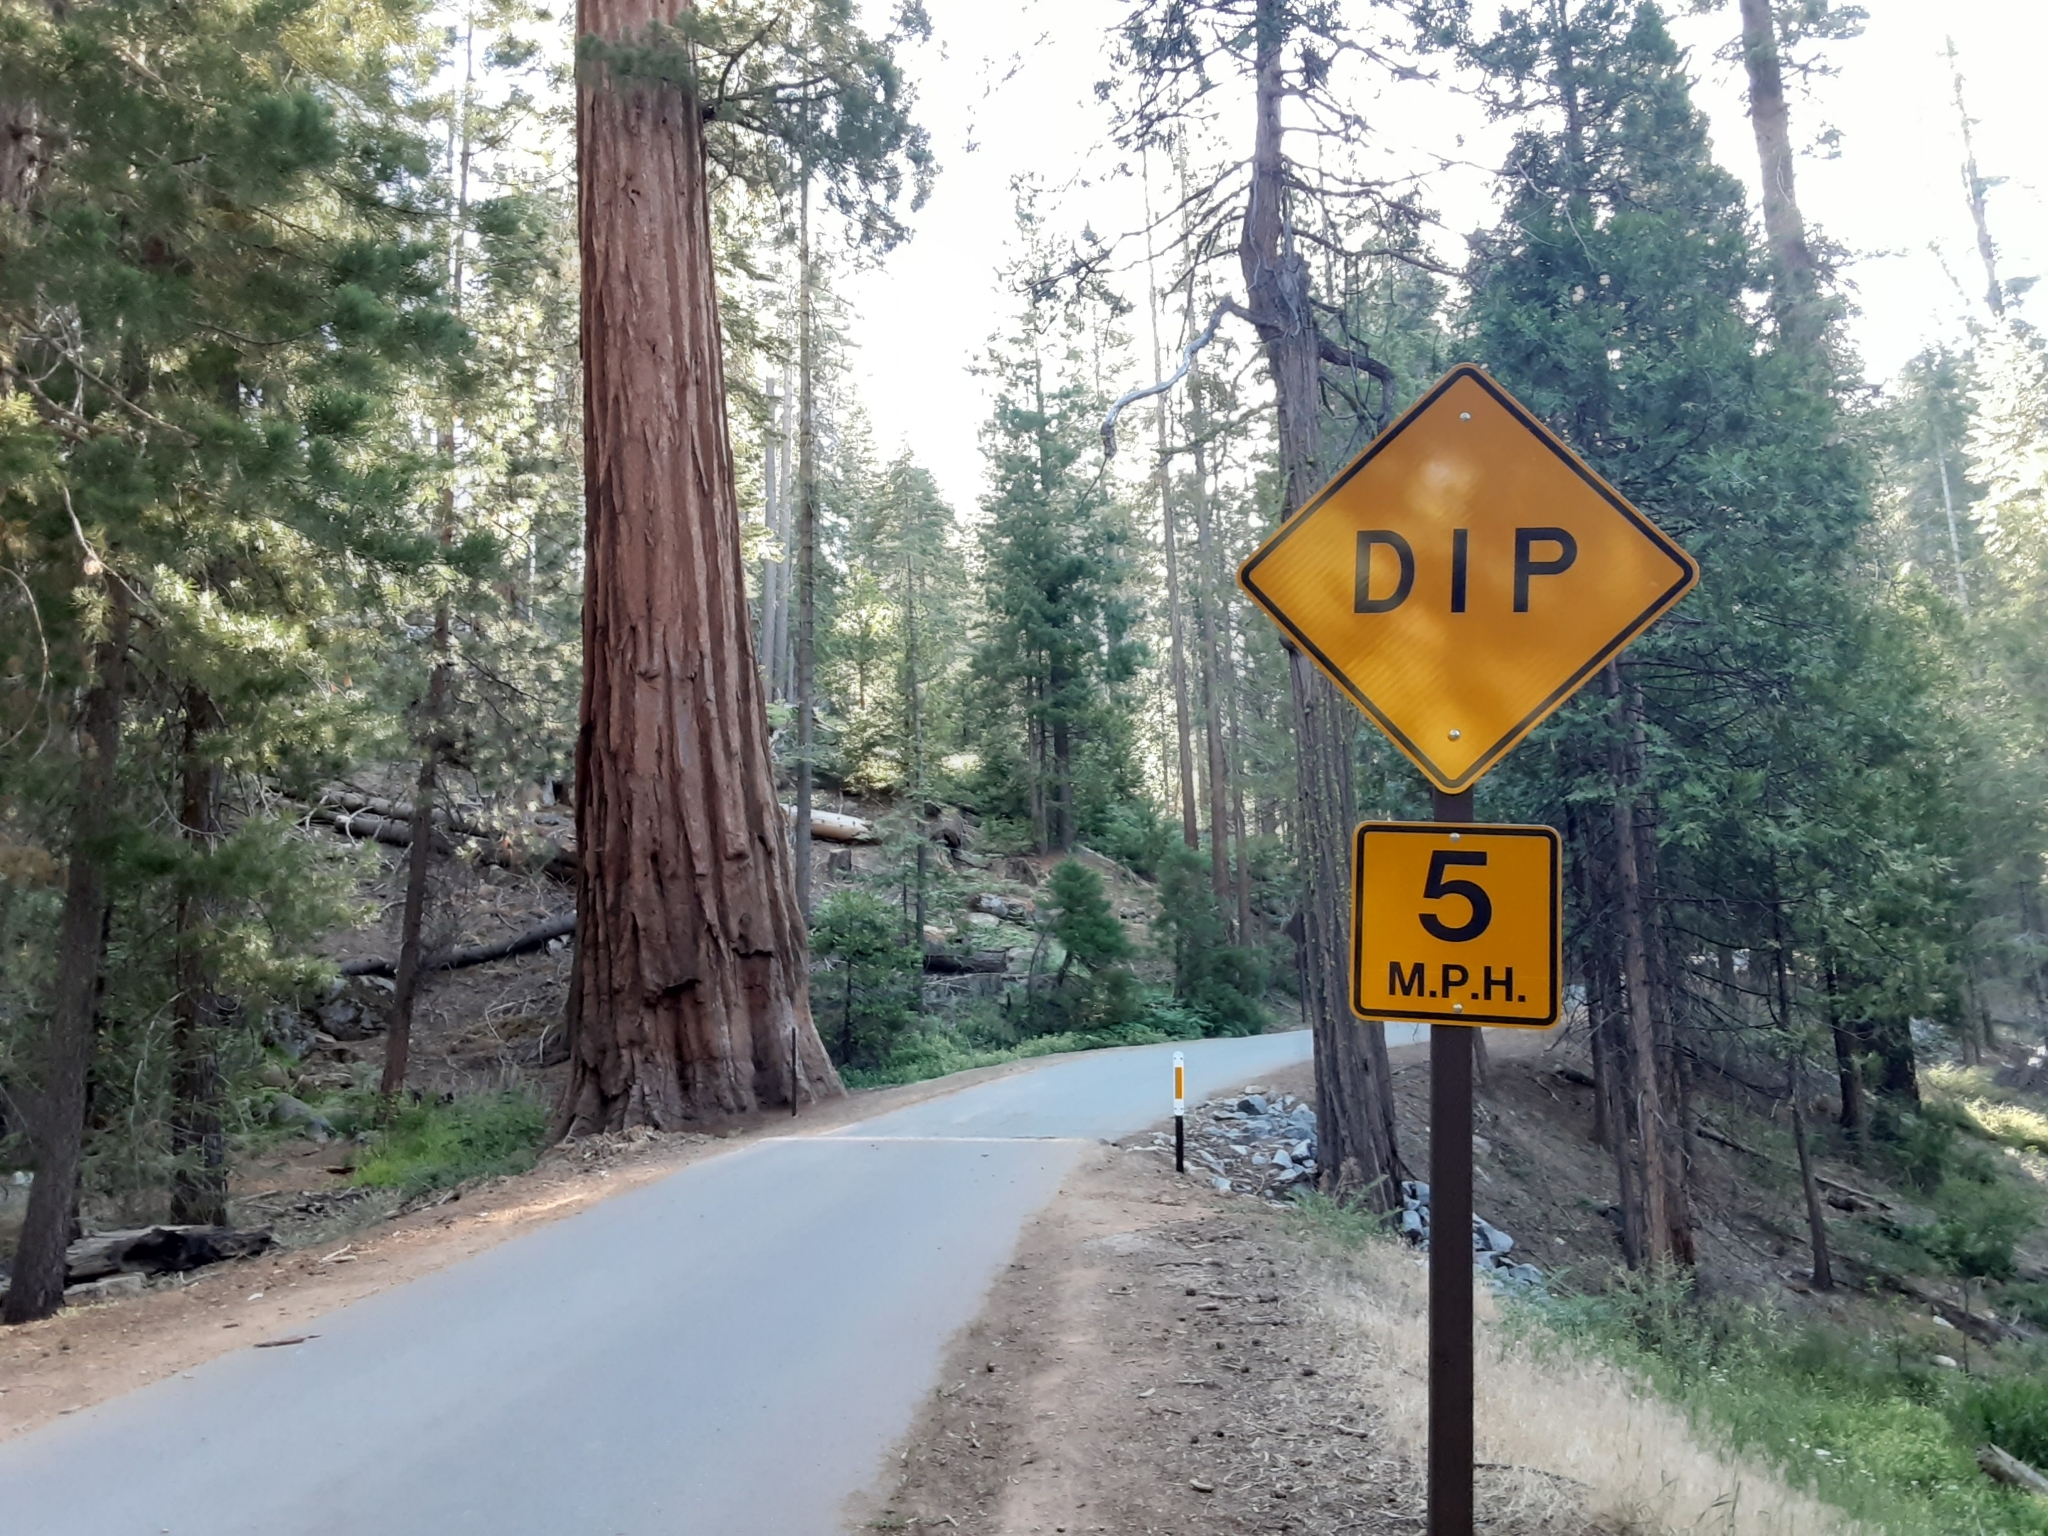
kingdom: Plantae
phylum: Tracheophyta
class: Pinopsida
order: Pinales
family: Cupressaceae
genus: Sequoiadendron
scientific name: Sequoiadendron giganteum
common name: Wellingtonia
